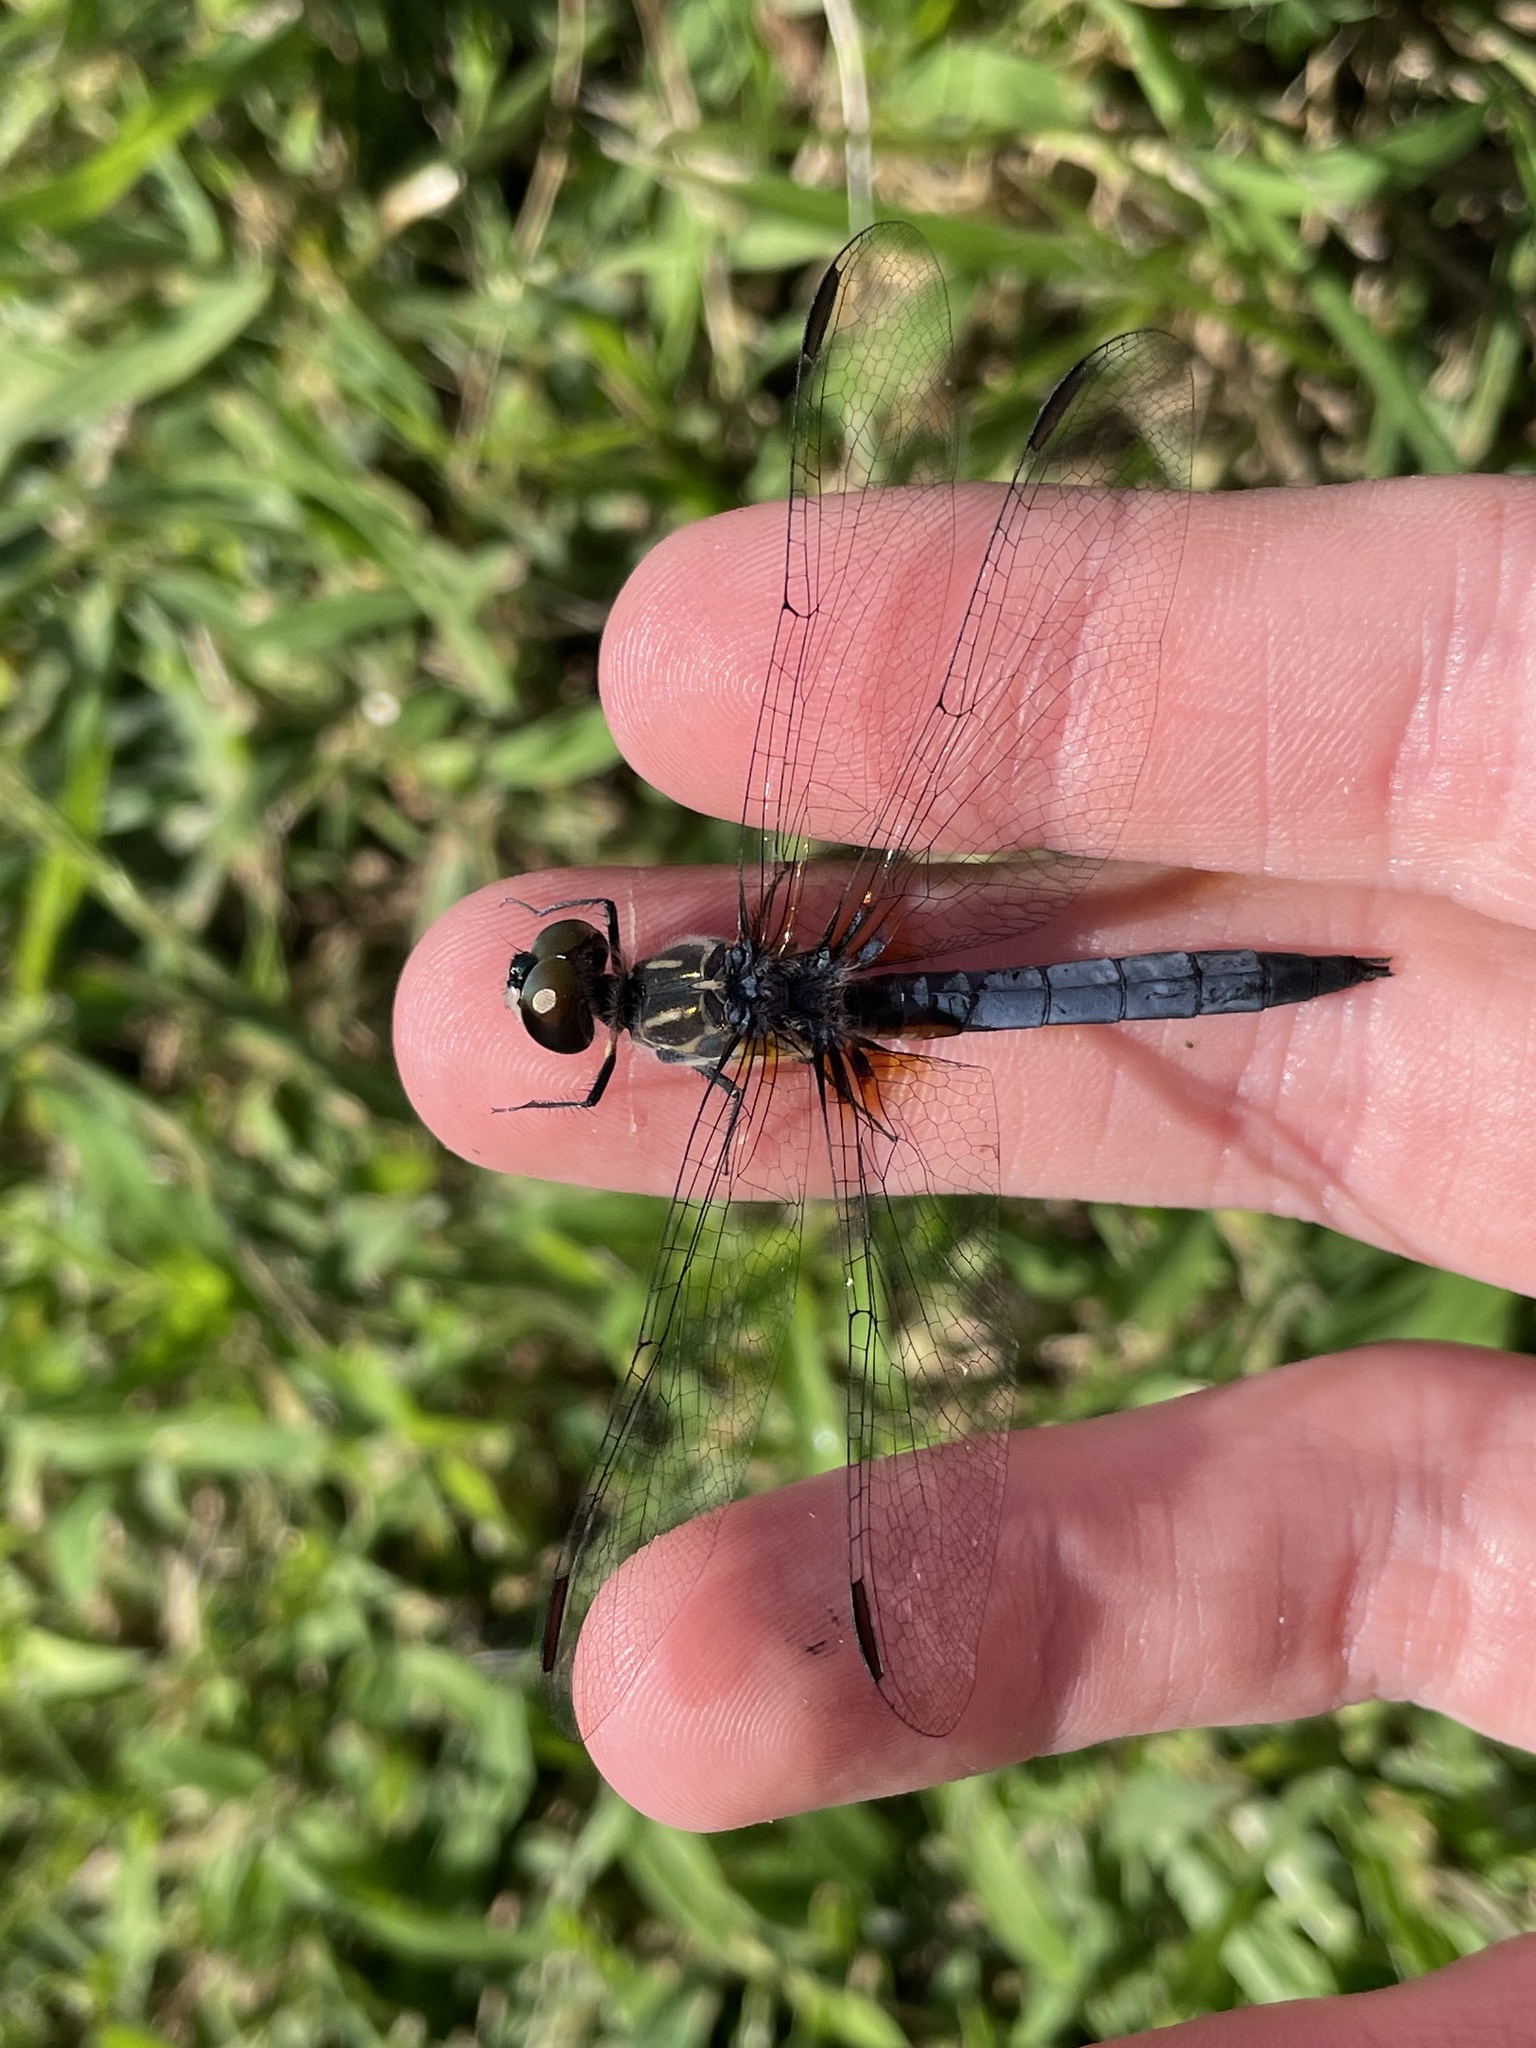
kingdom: Animalia
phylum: Arthropoda
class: Insecta
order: Odonata
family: Libellulidae
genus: Pachydiplax
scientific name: Pachydiplax longipennis
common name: Blue dasher
